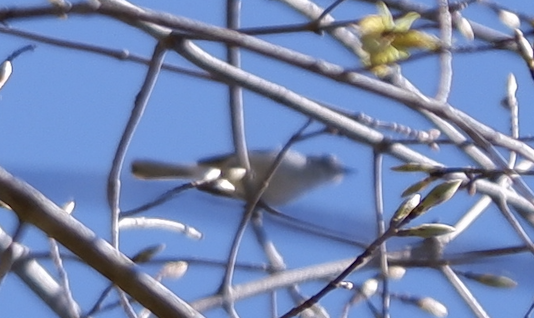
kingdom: Animalia
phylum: Chordata
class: Aves
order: Passeriformes
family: Polioptilidae
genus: Polioptila
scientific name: Polioptila caerulea
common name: Blue-gray gnatcatcher
